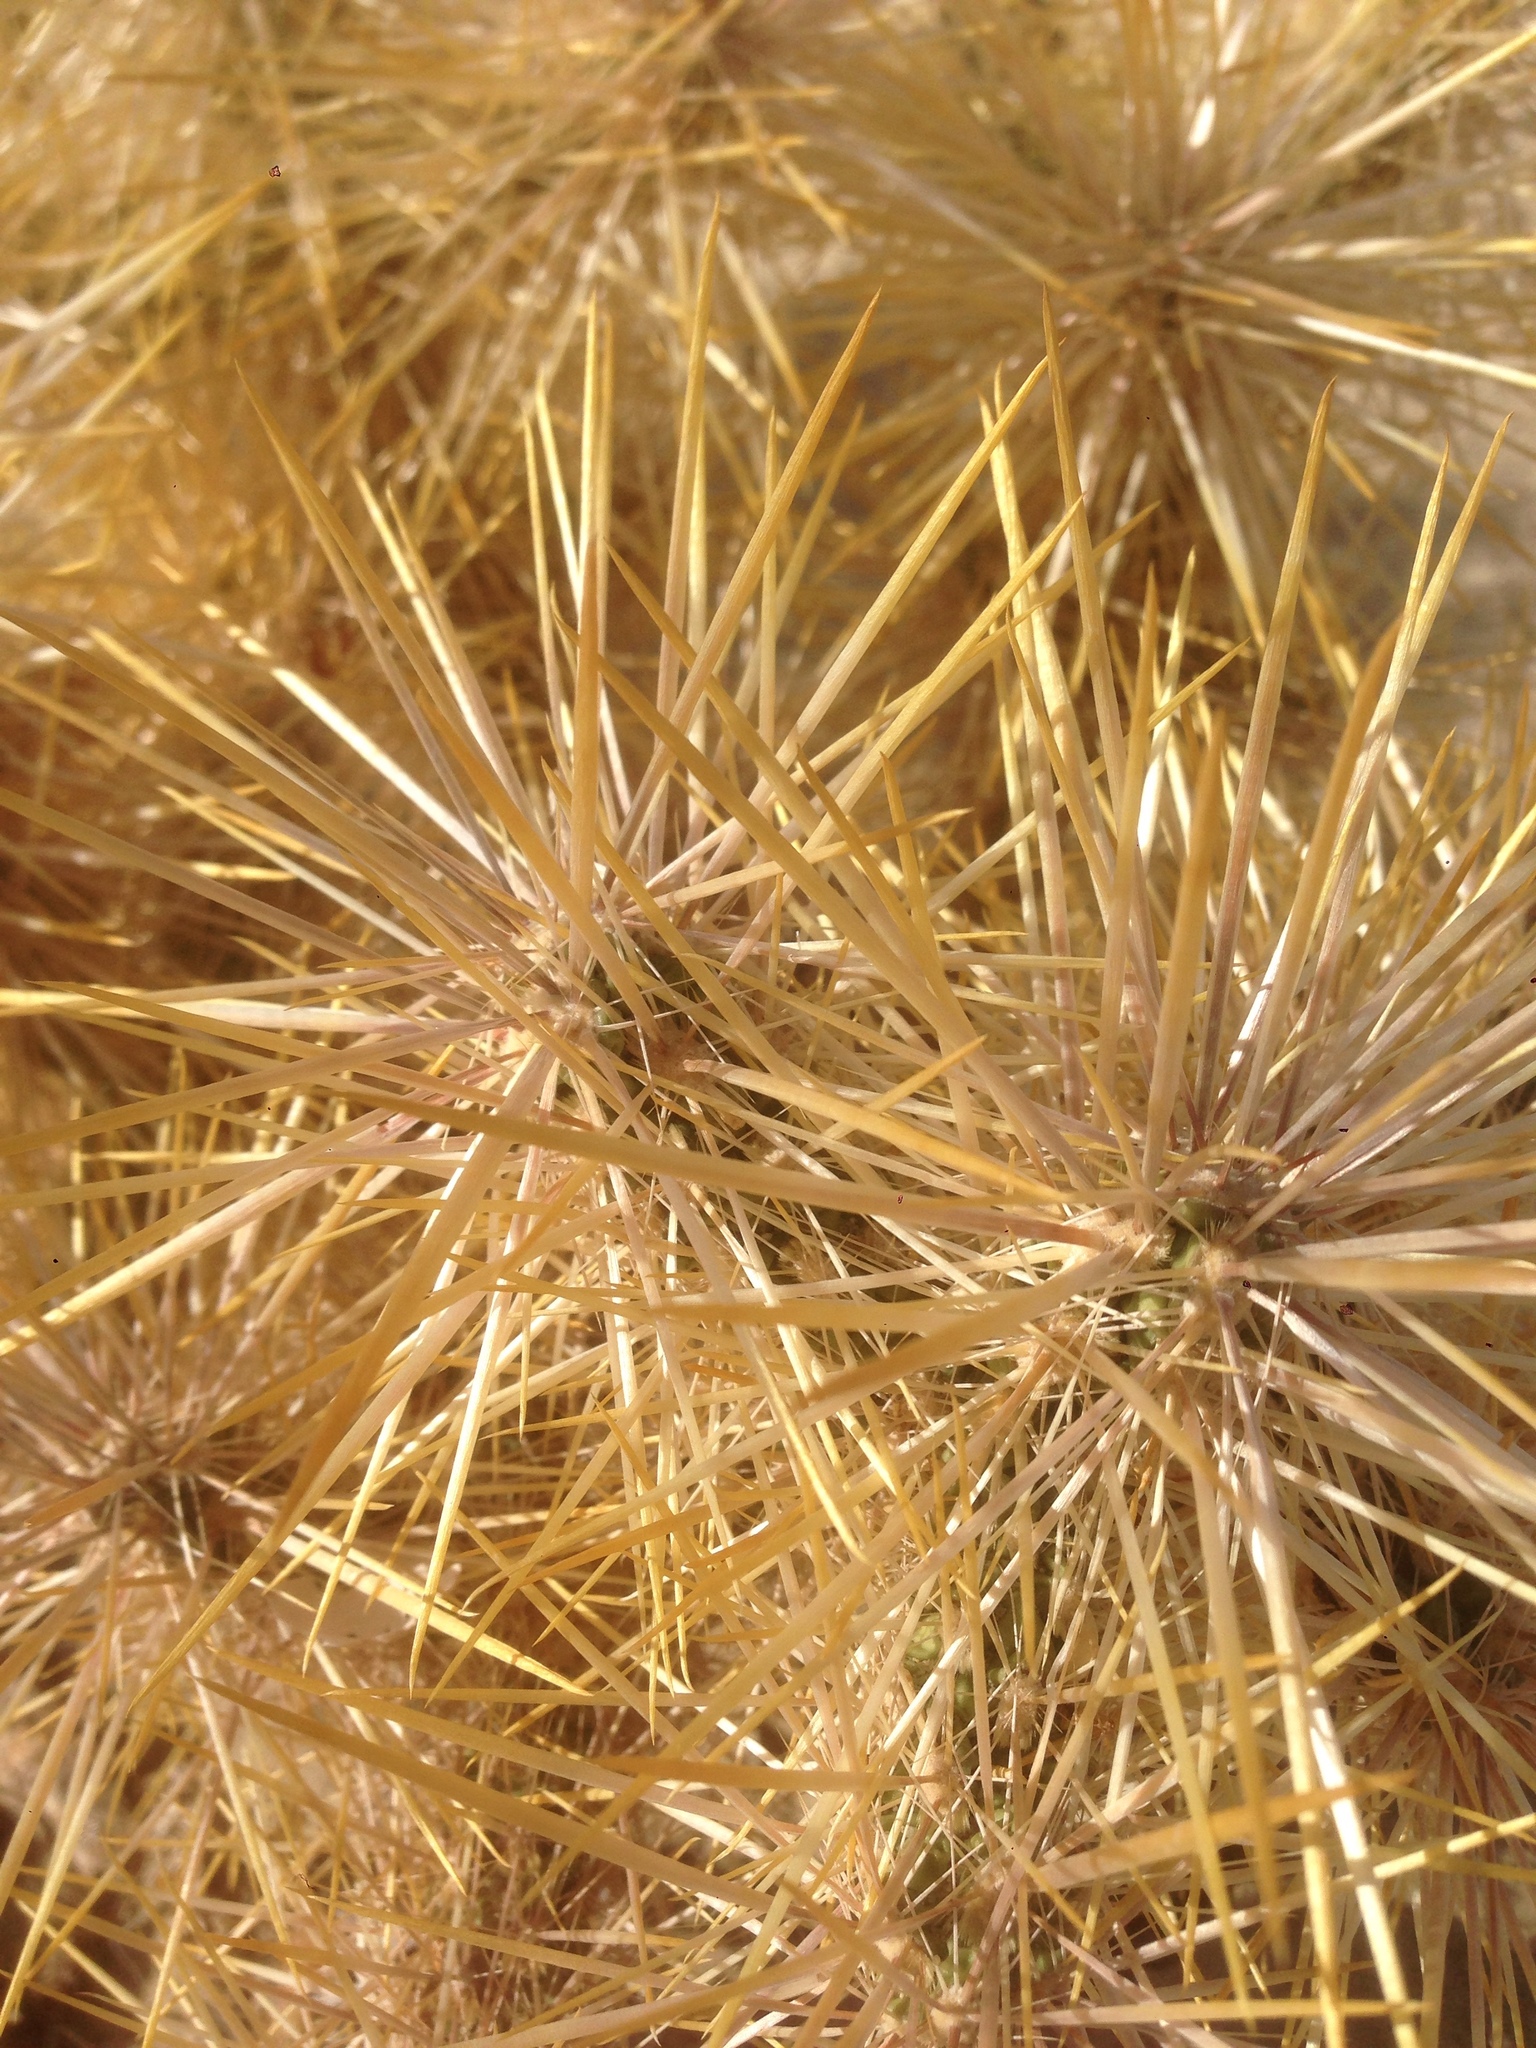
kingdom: Plantae
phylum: Tracheophyta
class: Magnoliopsida
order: Caryophyllales
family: Cactaceae
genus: Cylindropuntia
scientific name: Cylindropuntia echinocarpa
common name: Ground cholla
